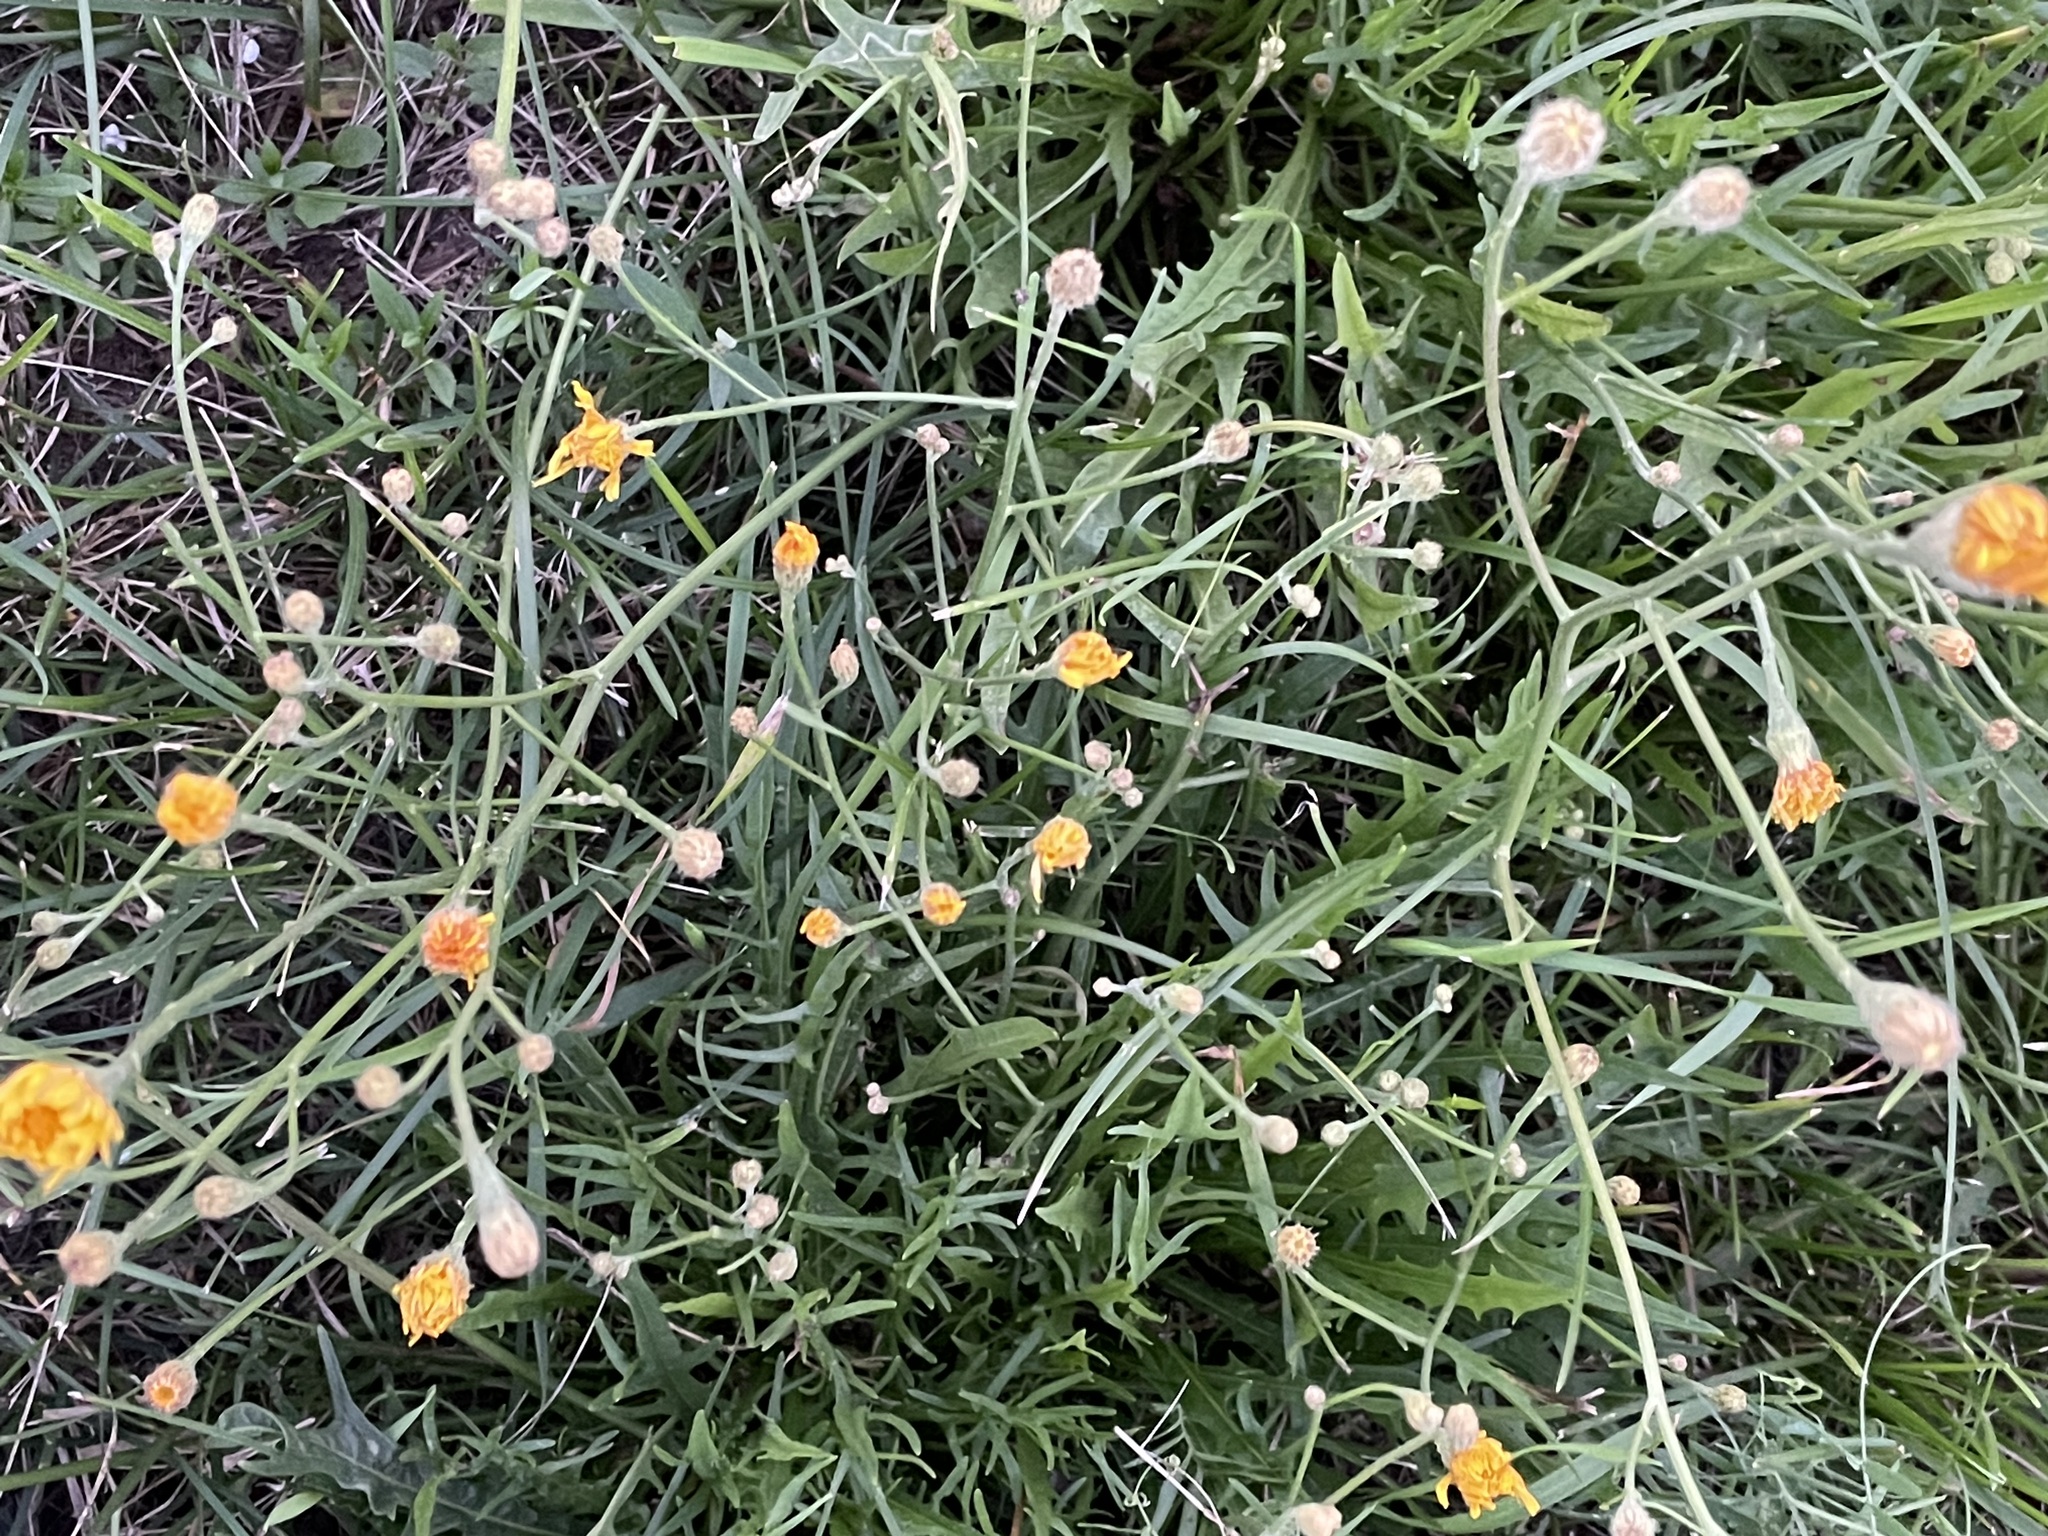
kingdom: Plantae
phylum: Tracheophyta
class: Magnoliopsida
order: Asterales
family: Asteraceae
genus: Scorzoneroides
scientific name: Scorzoneroides autumnalis
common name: Autumn hawkbit
